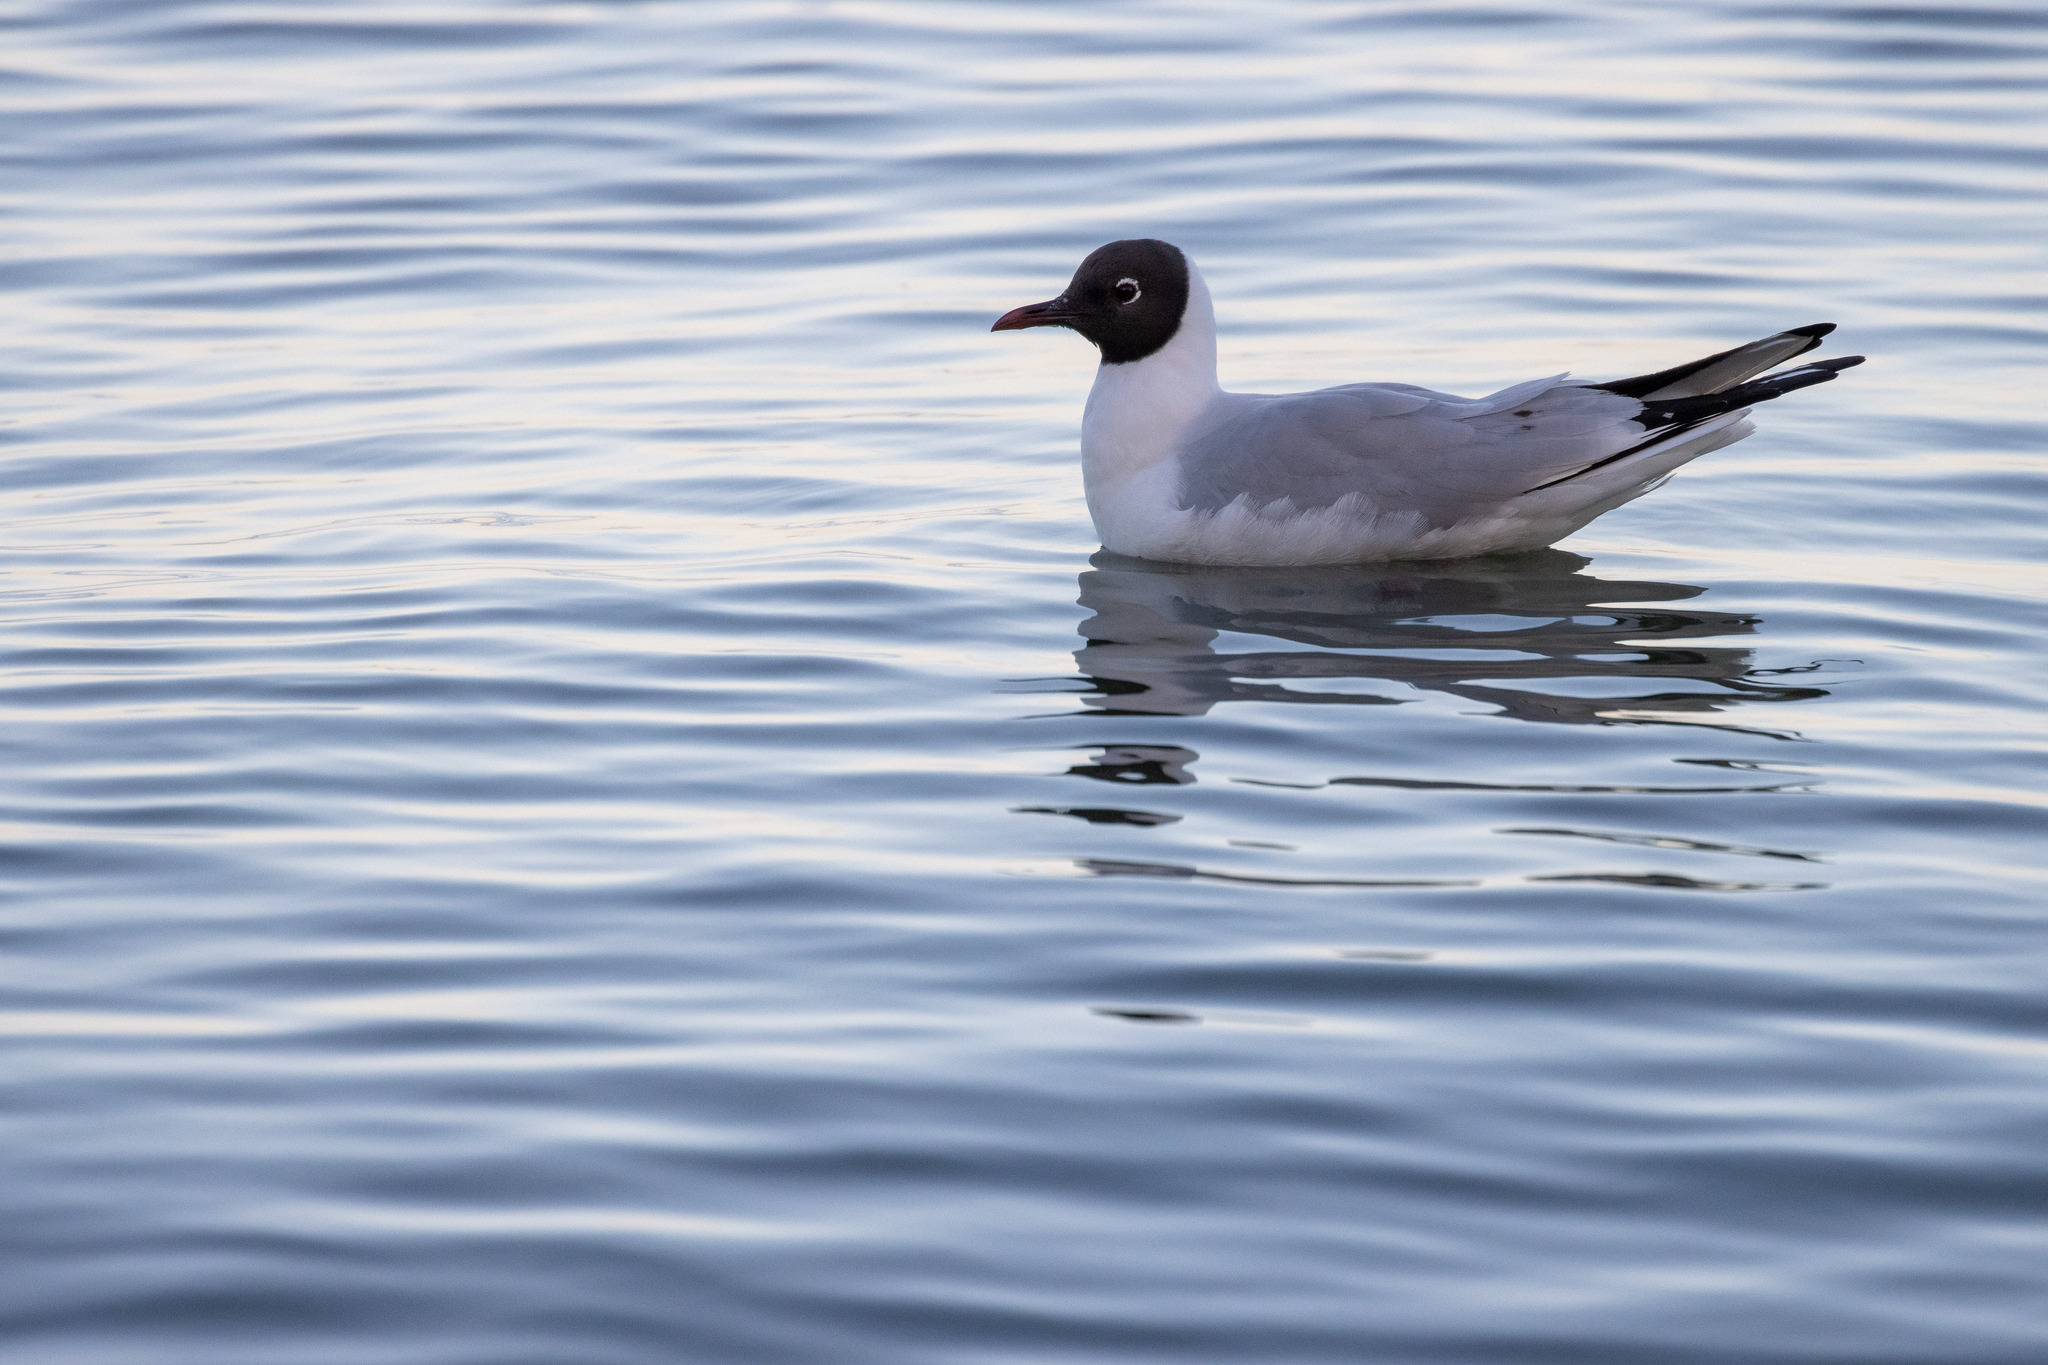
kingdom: Animalia
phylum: Chordata
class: Aves
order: Charadriiformes
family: Laridae
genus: Chroicocephalus
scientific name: Chroicocephalus ridibundus
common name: Black-headed gull
